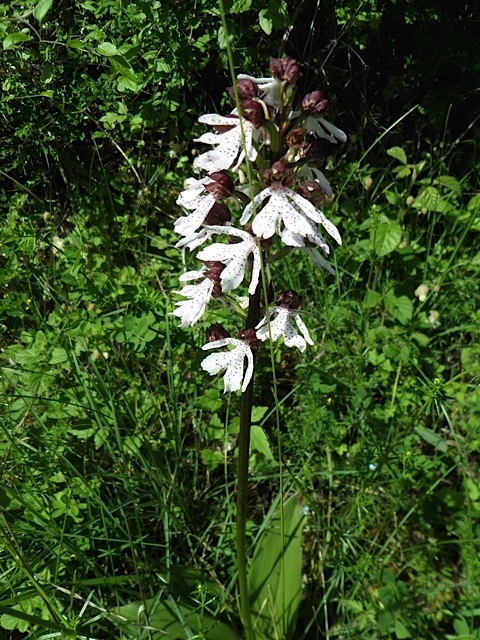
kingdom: Plantae
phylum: Tracheophyta
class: Liliopsida
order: Asparagales
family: Orchidaceae
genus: Orchis
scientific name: Orchis purpurea
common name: Lady orchid
